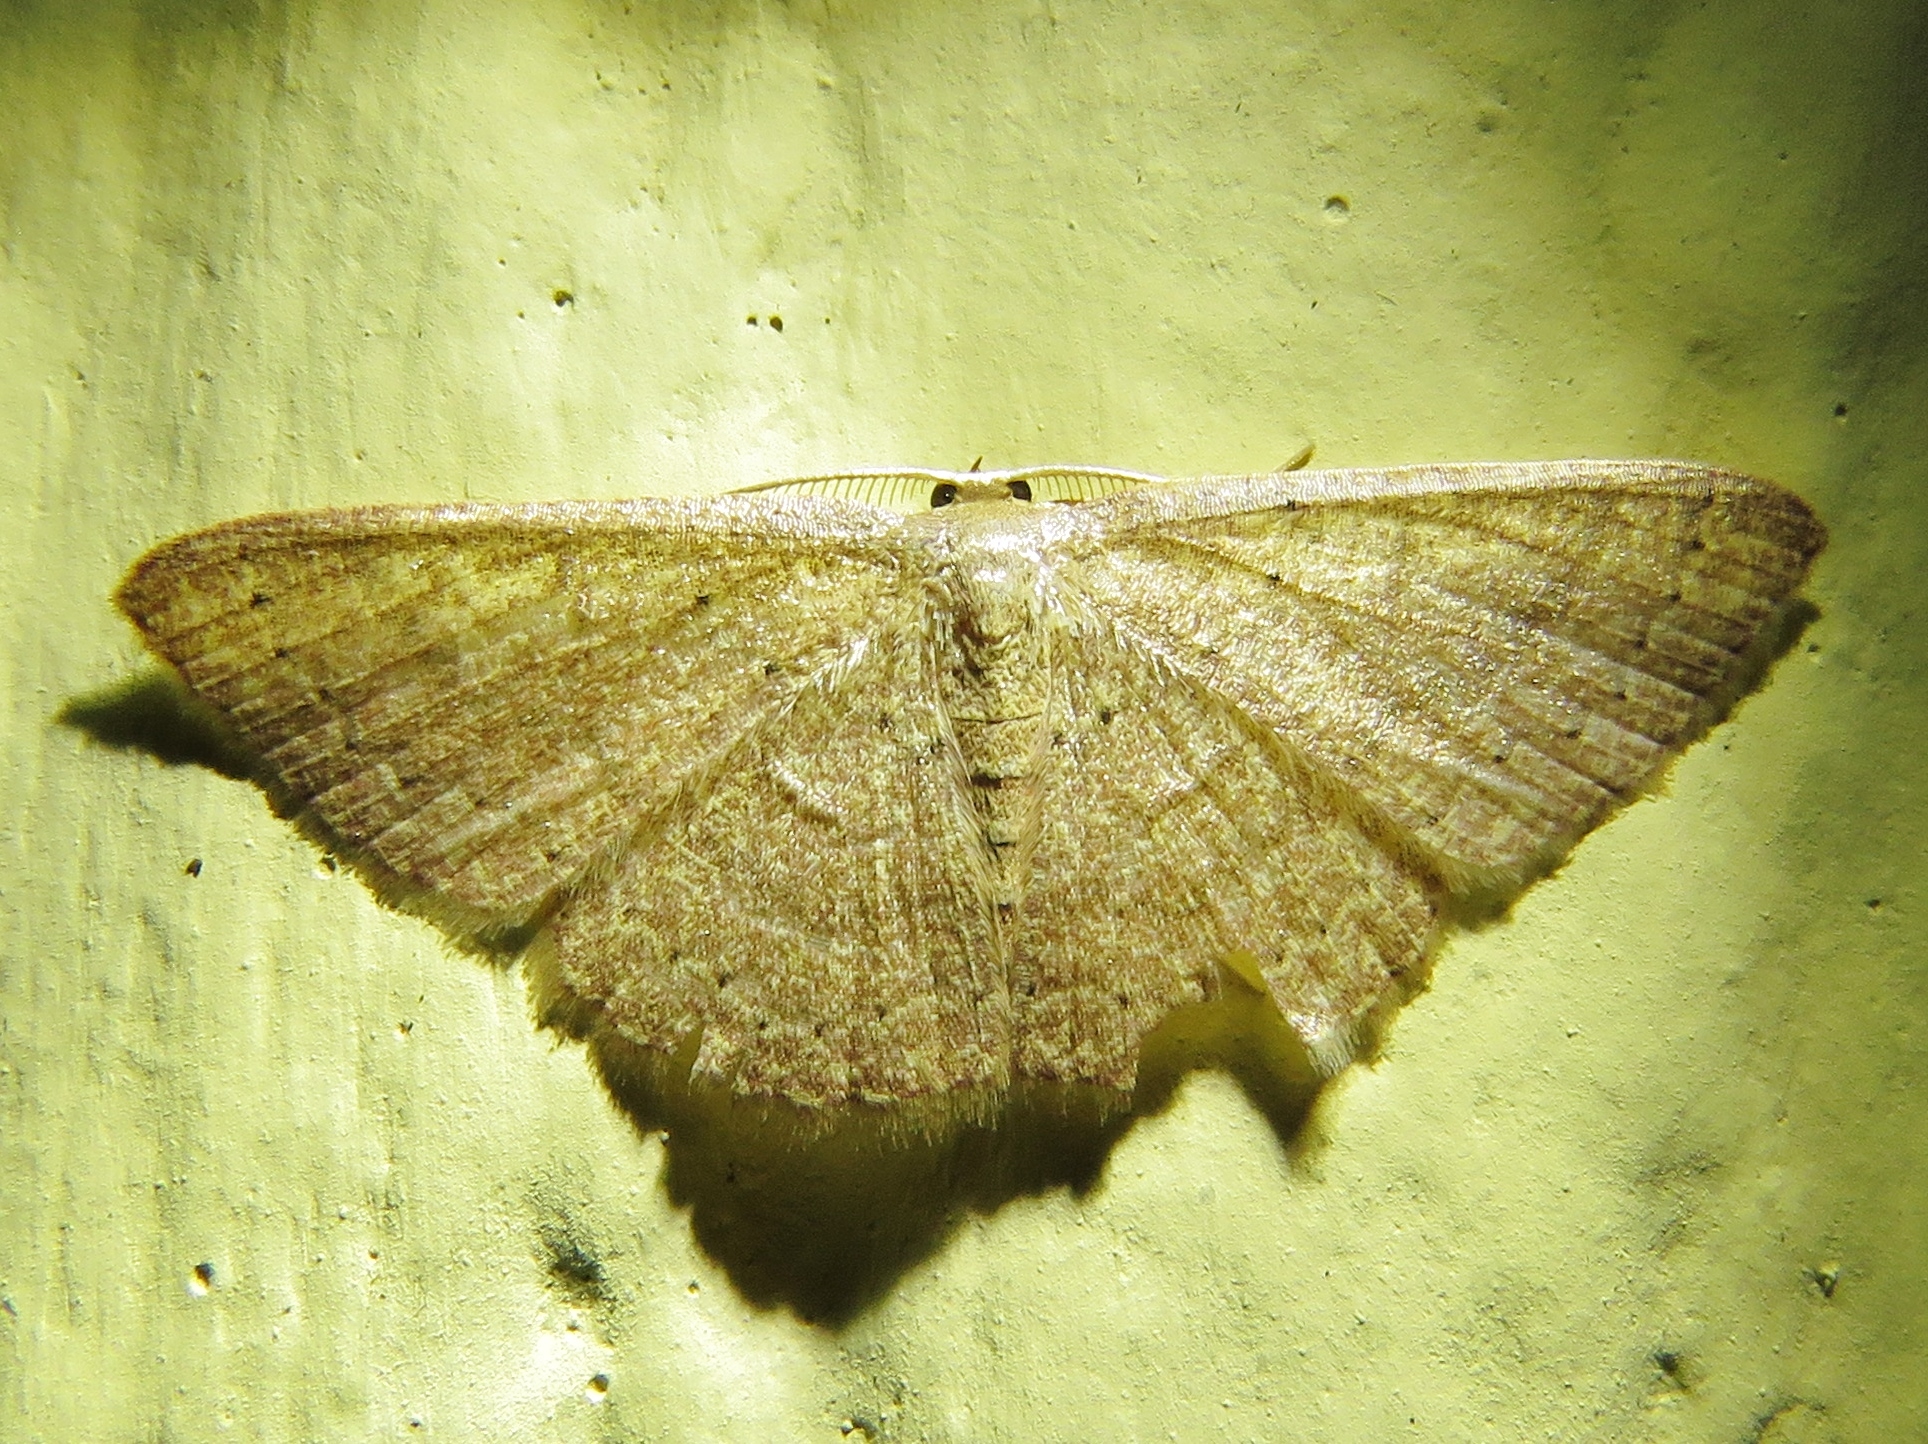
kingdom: Animalia
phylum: Arthropoda
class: Insecta
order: Lepidoptera
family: Geometridae
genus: Pleuroprucha
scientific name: Pleuroprucha insulsaria
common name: Common tan wave
